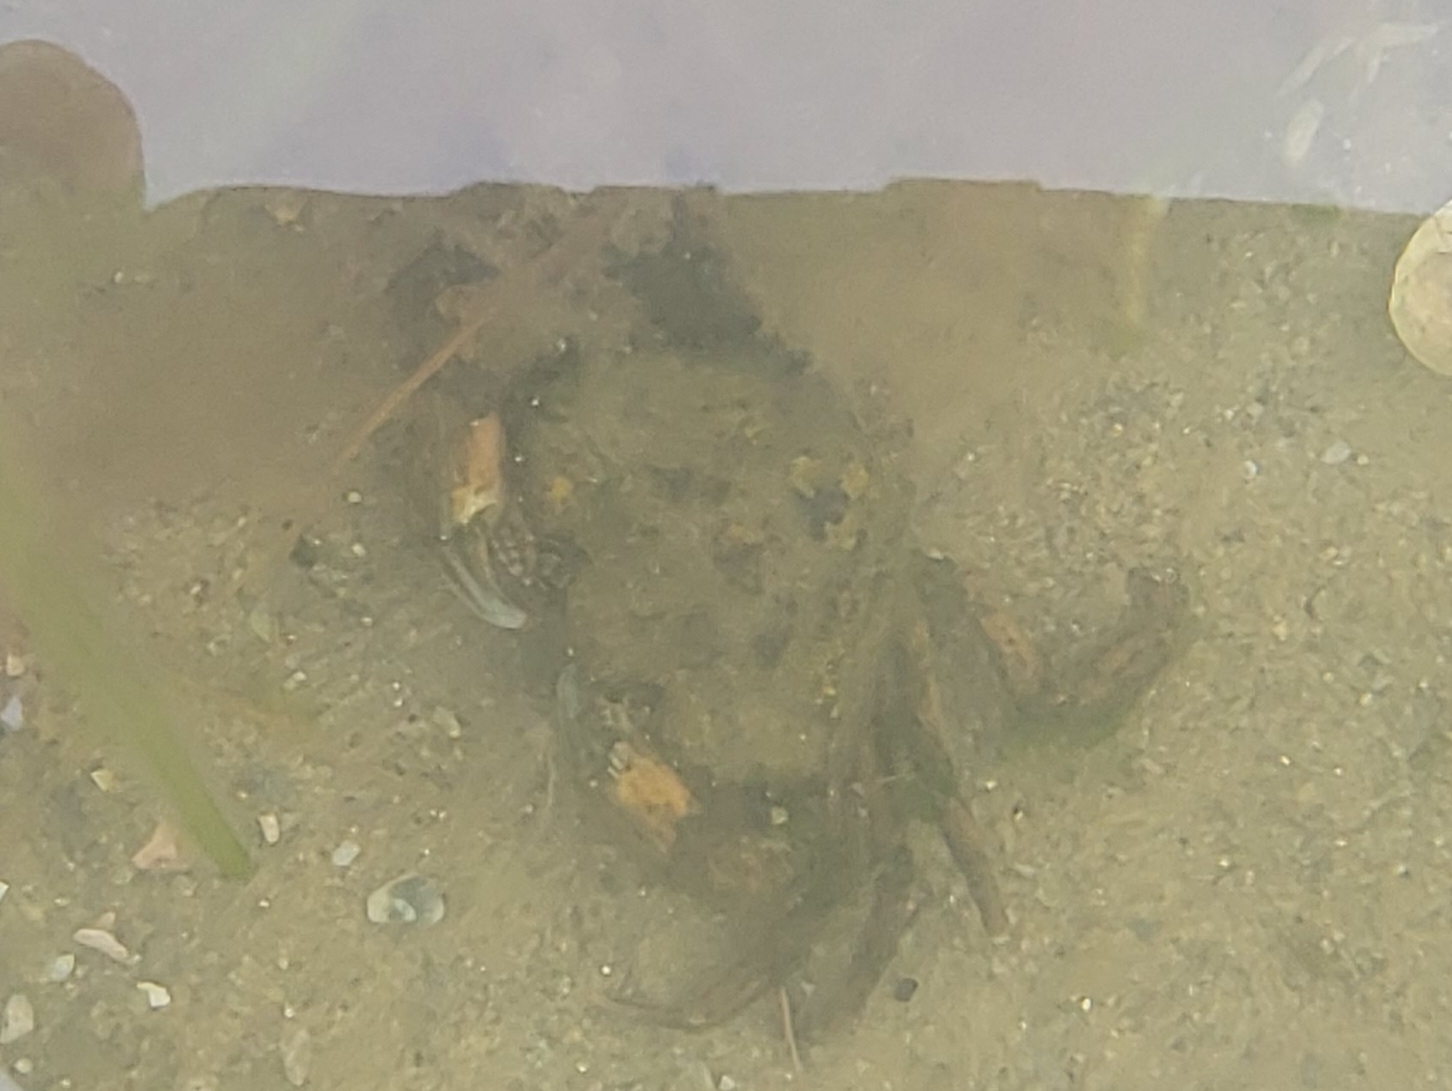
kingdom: Animalia
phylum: Arthropoda
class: Malacostraca
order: Decapoda
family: Carcinidae
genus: Carcinus
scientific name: Carcinus maenas
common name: European green crab
